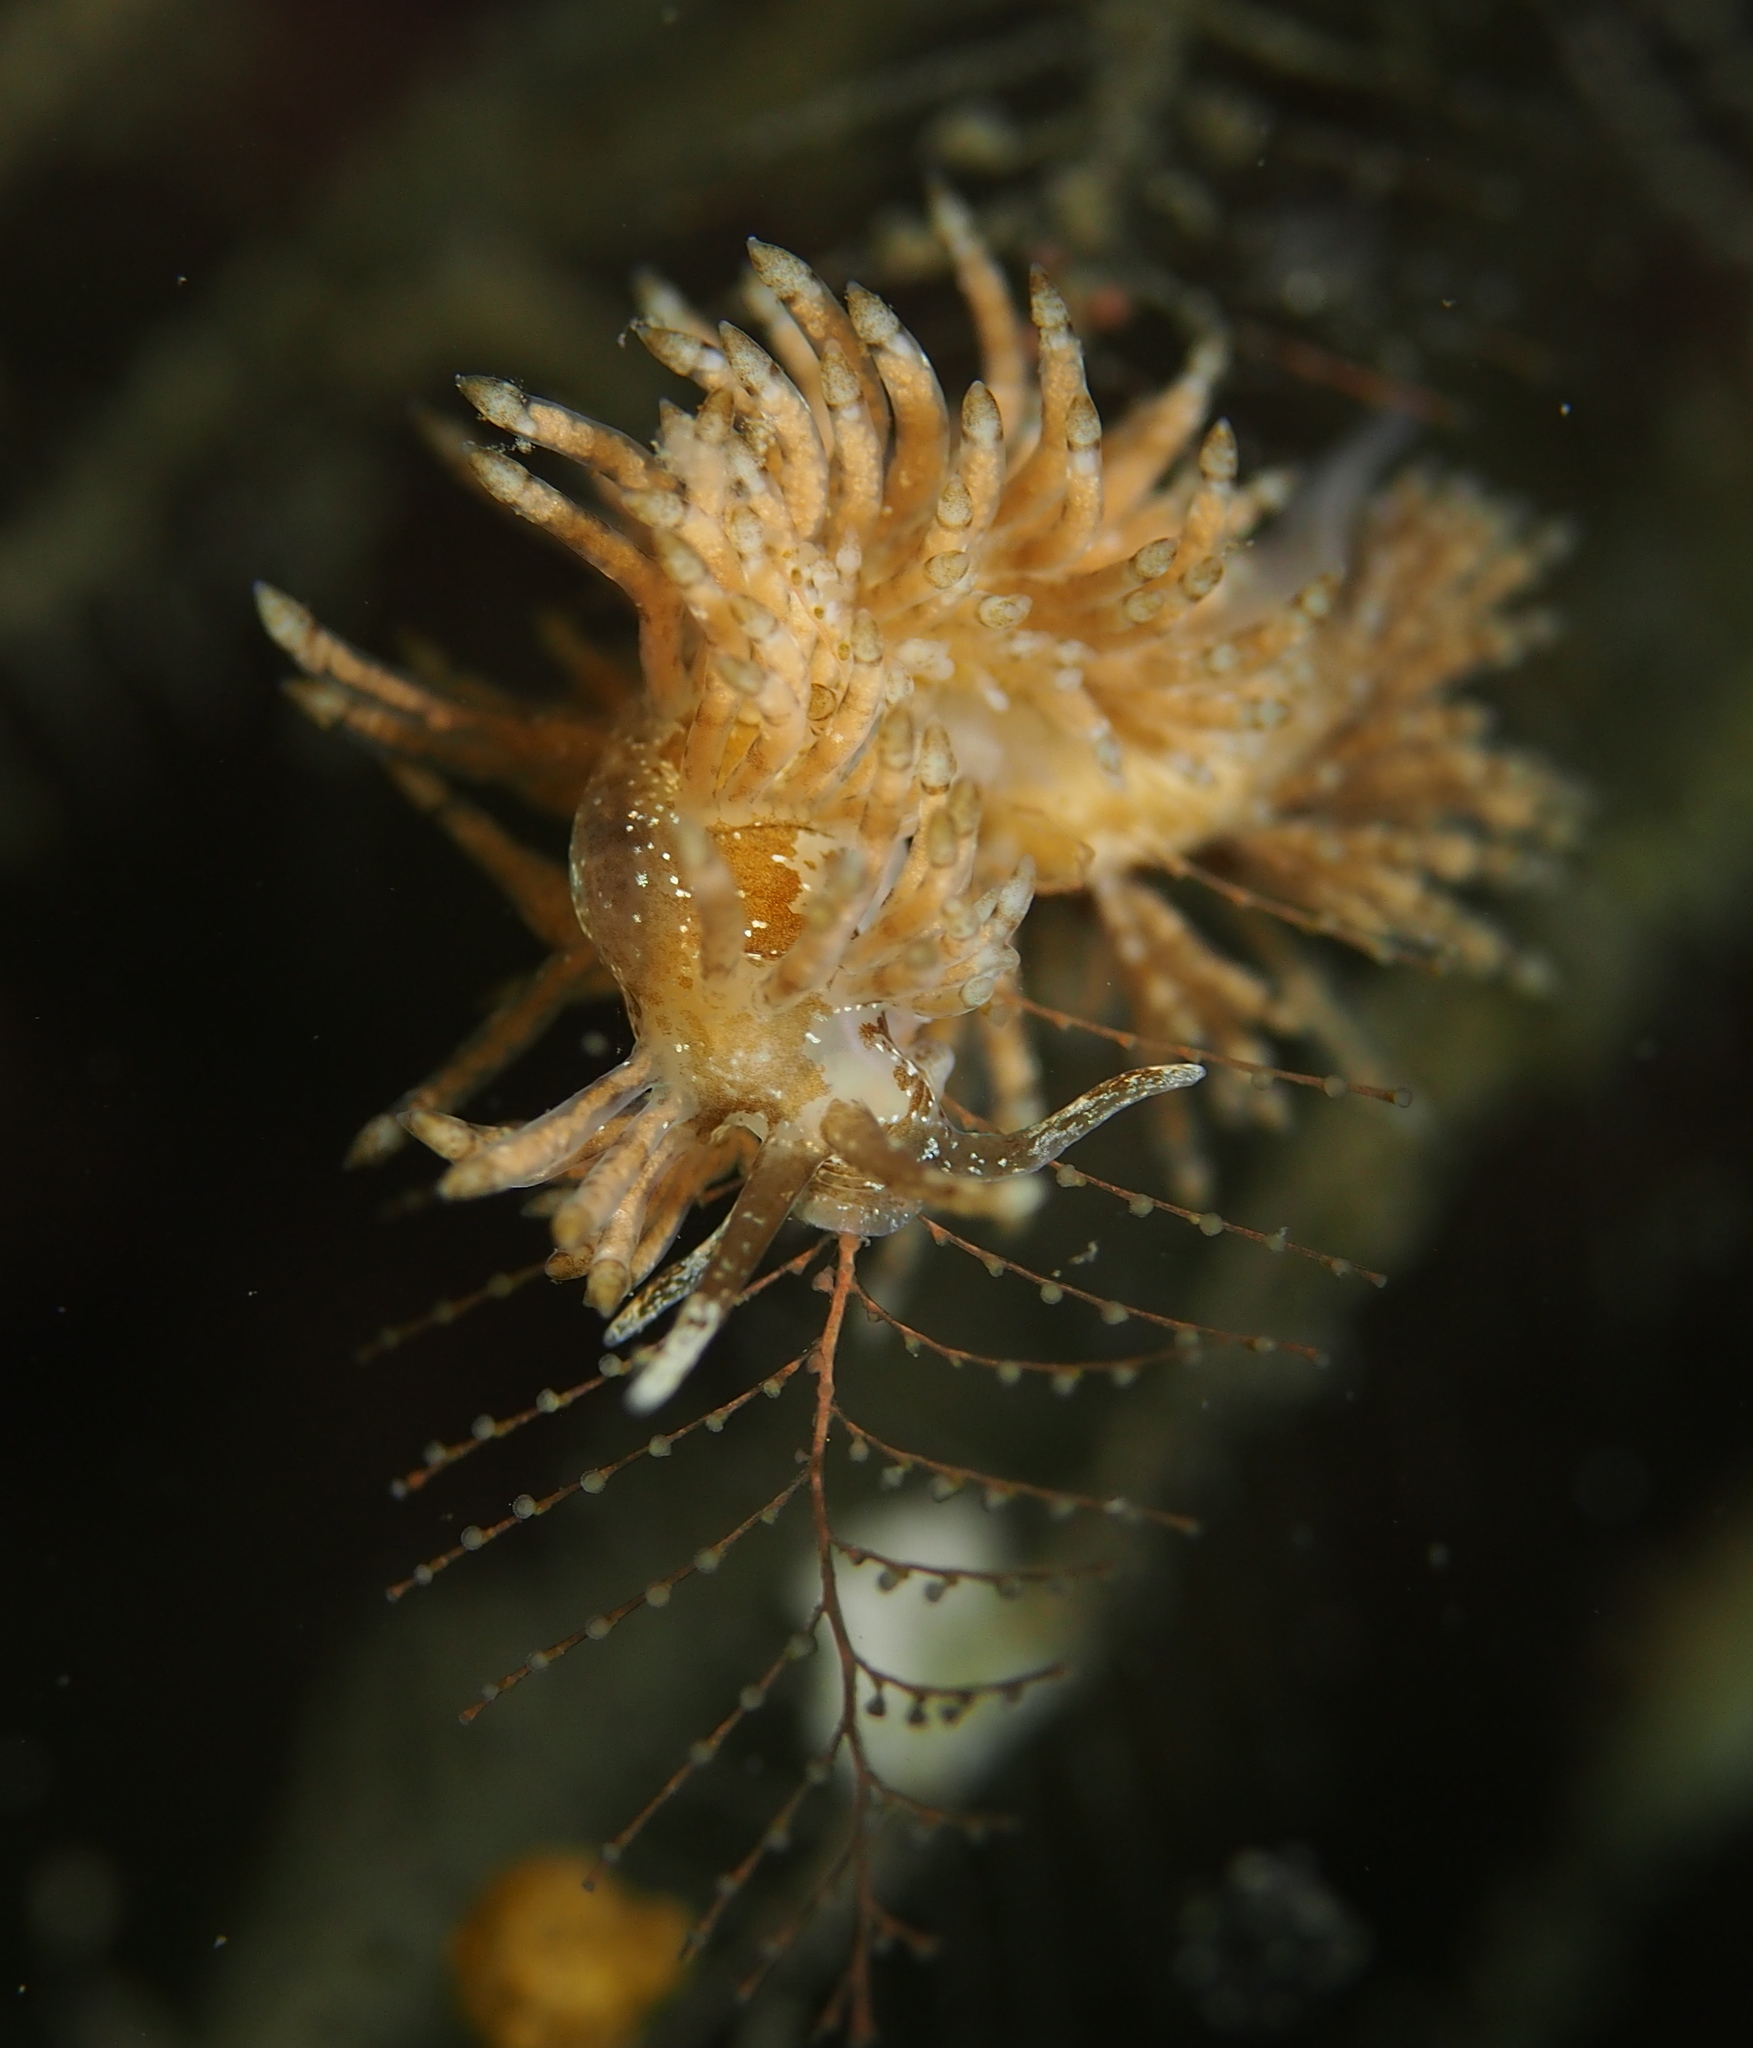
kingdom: Animalia
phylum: Mollusca
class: Gastropoda
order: Nudibranchia
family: Eubranchidae
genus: Eubranchus
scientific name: Eubranchus vittatus
